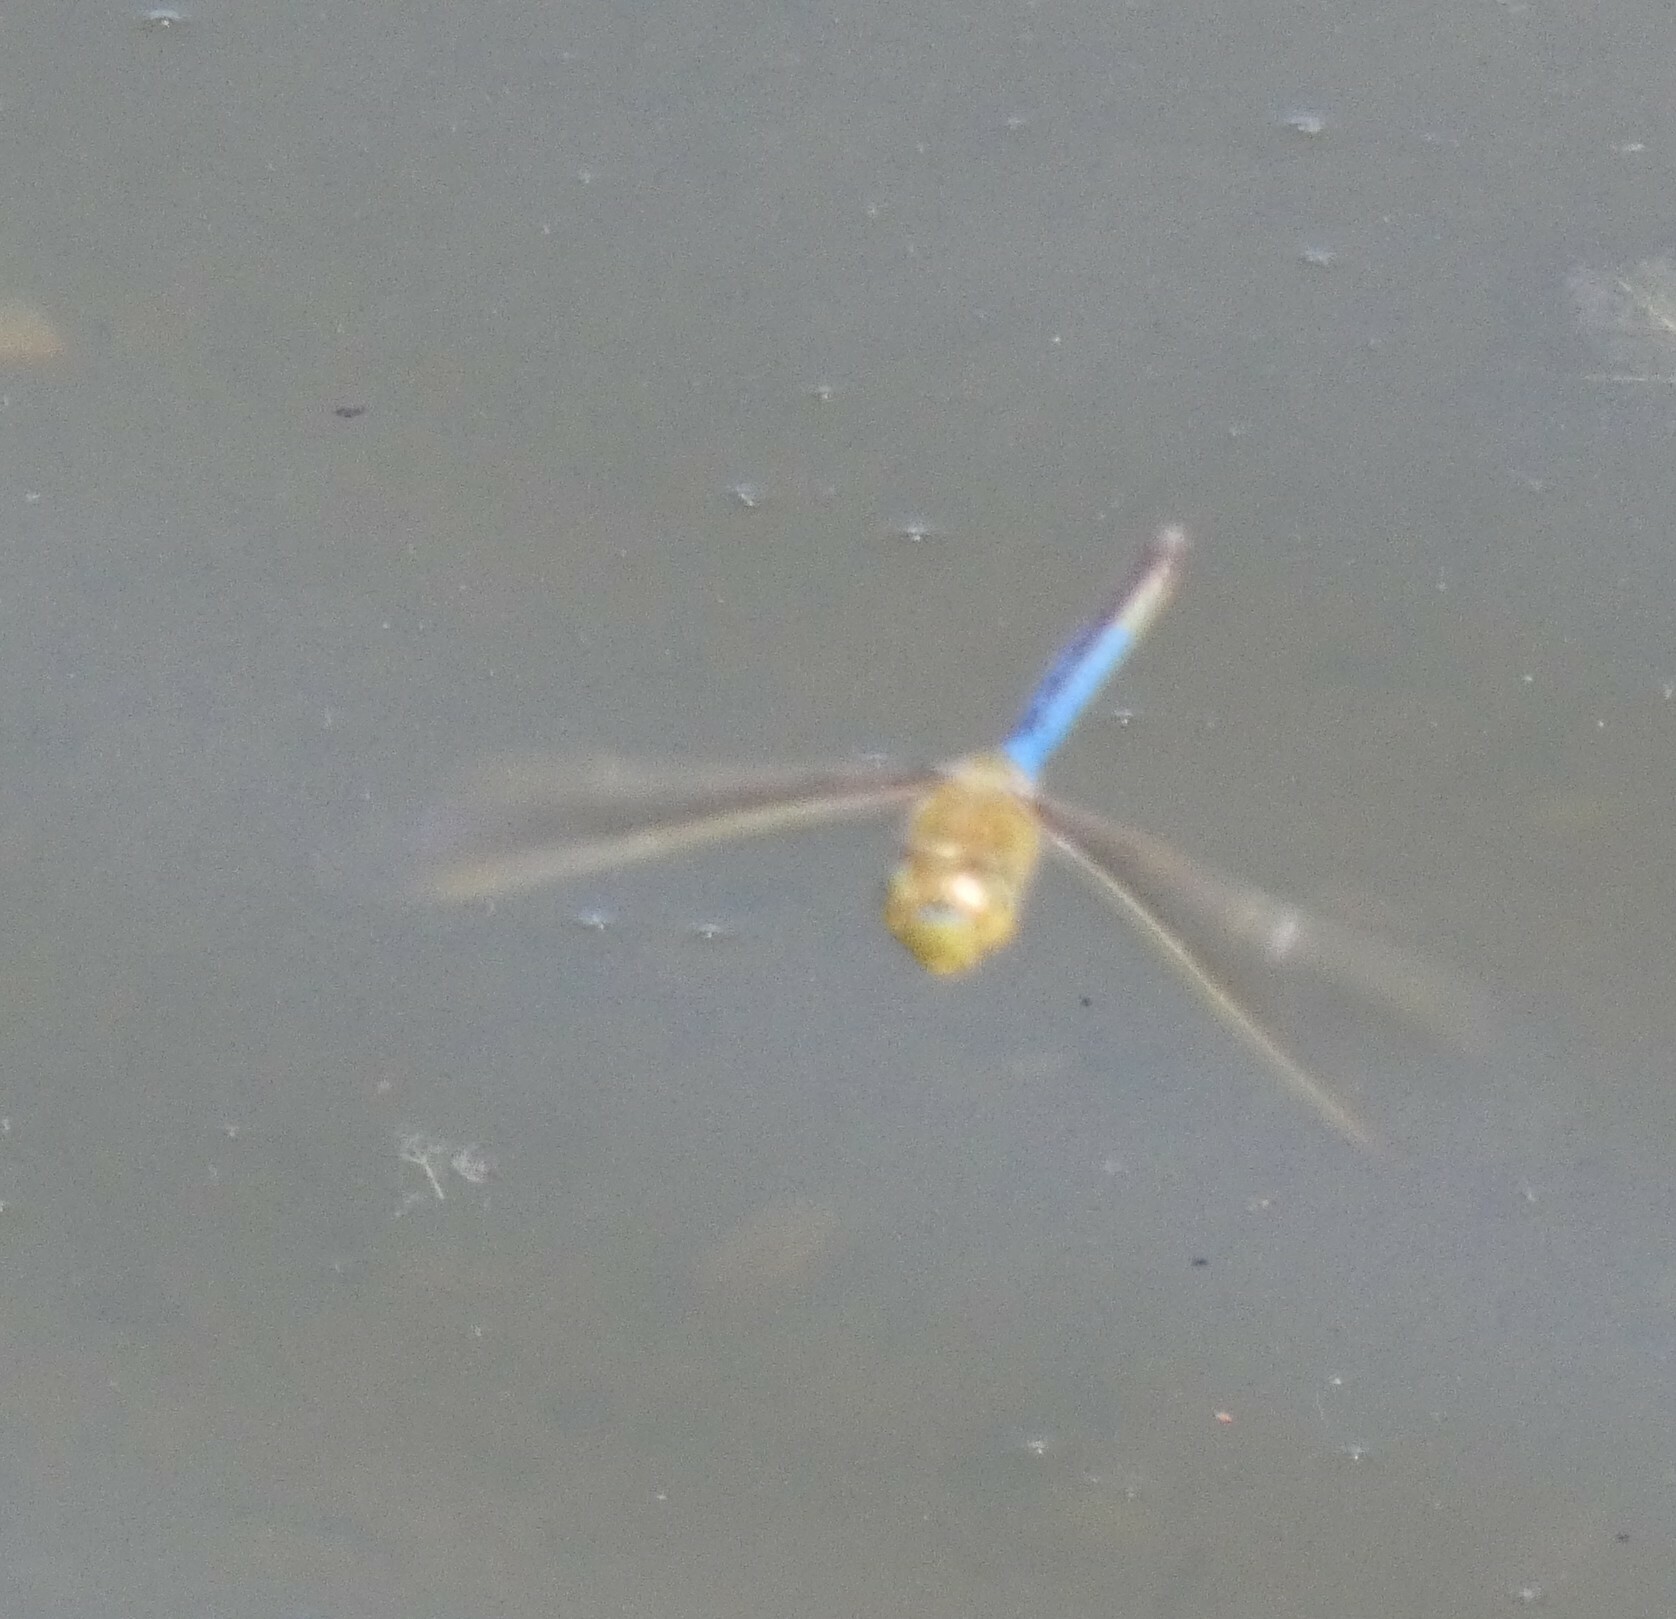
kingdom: Animalia
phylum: Arthropoda
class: Insecta
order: Odonata
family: Aeshnidae
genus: Anax
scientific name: Anax junius
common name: Common green darner
